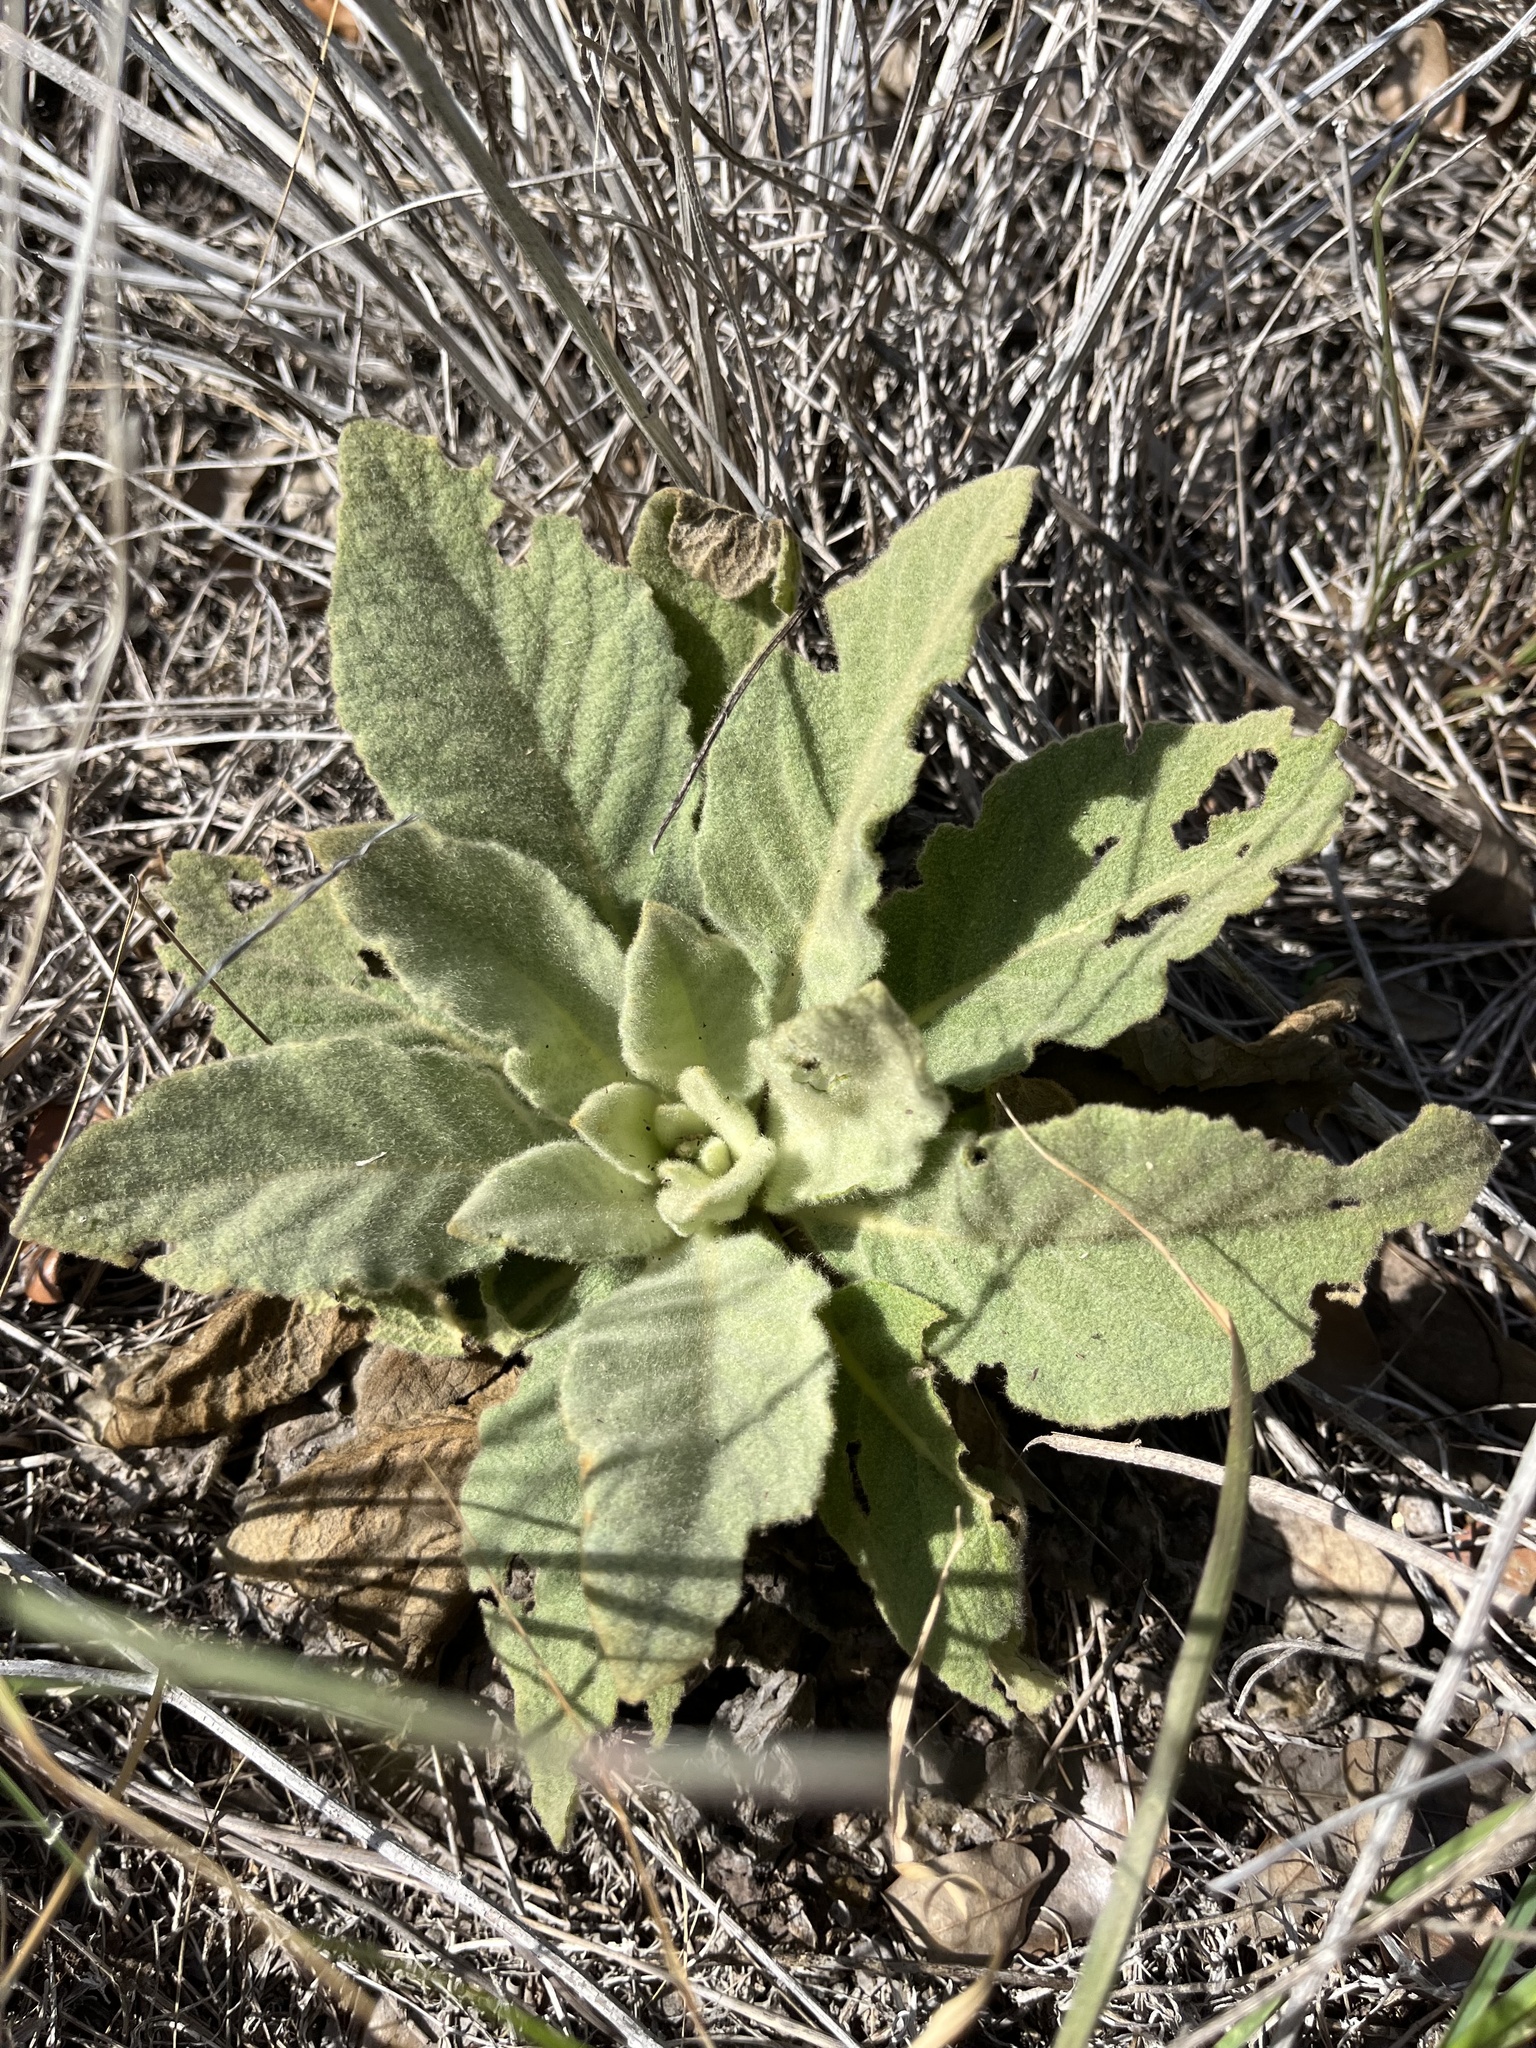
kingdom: Plantae
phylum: Tracheophyta
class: Magnoliopsida
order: Lamiales
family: Scrophulariaceae
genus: Verbascum
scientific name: Verbascum thapsus
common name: Common mullein
